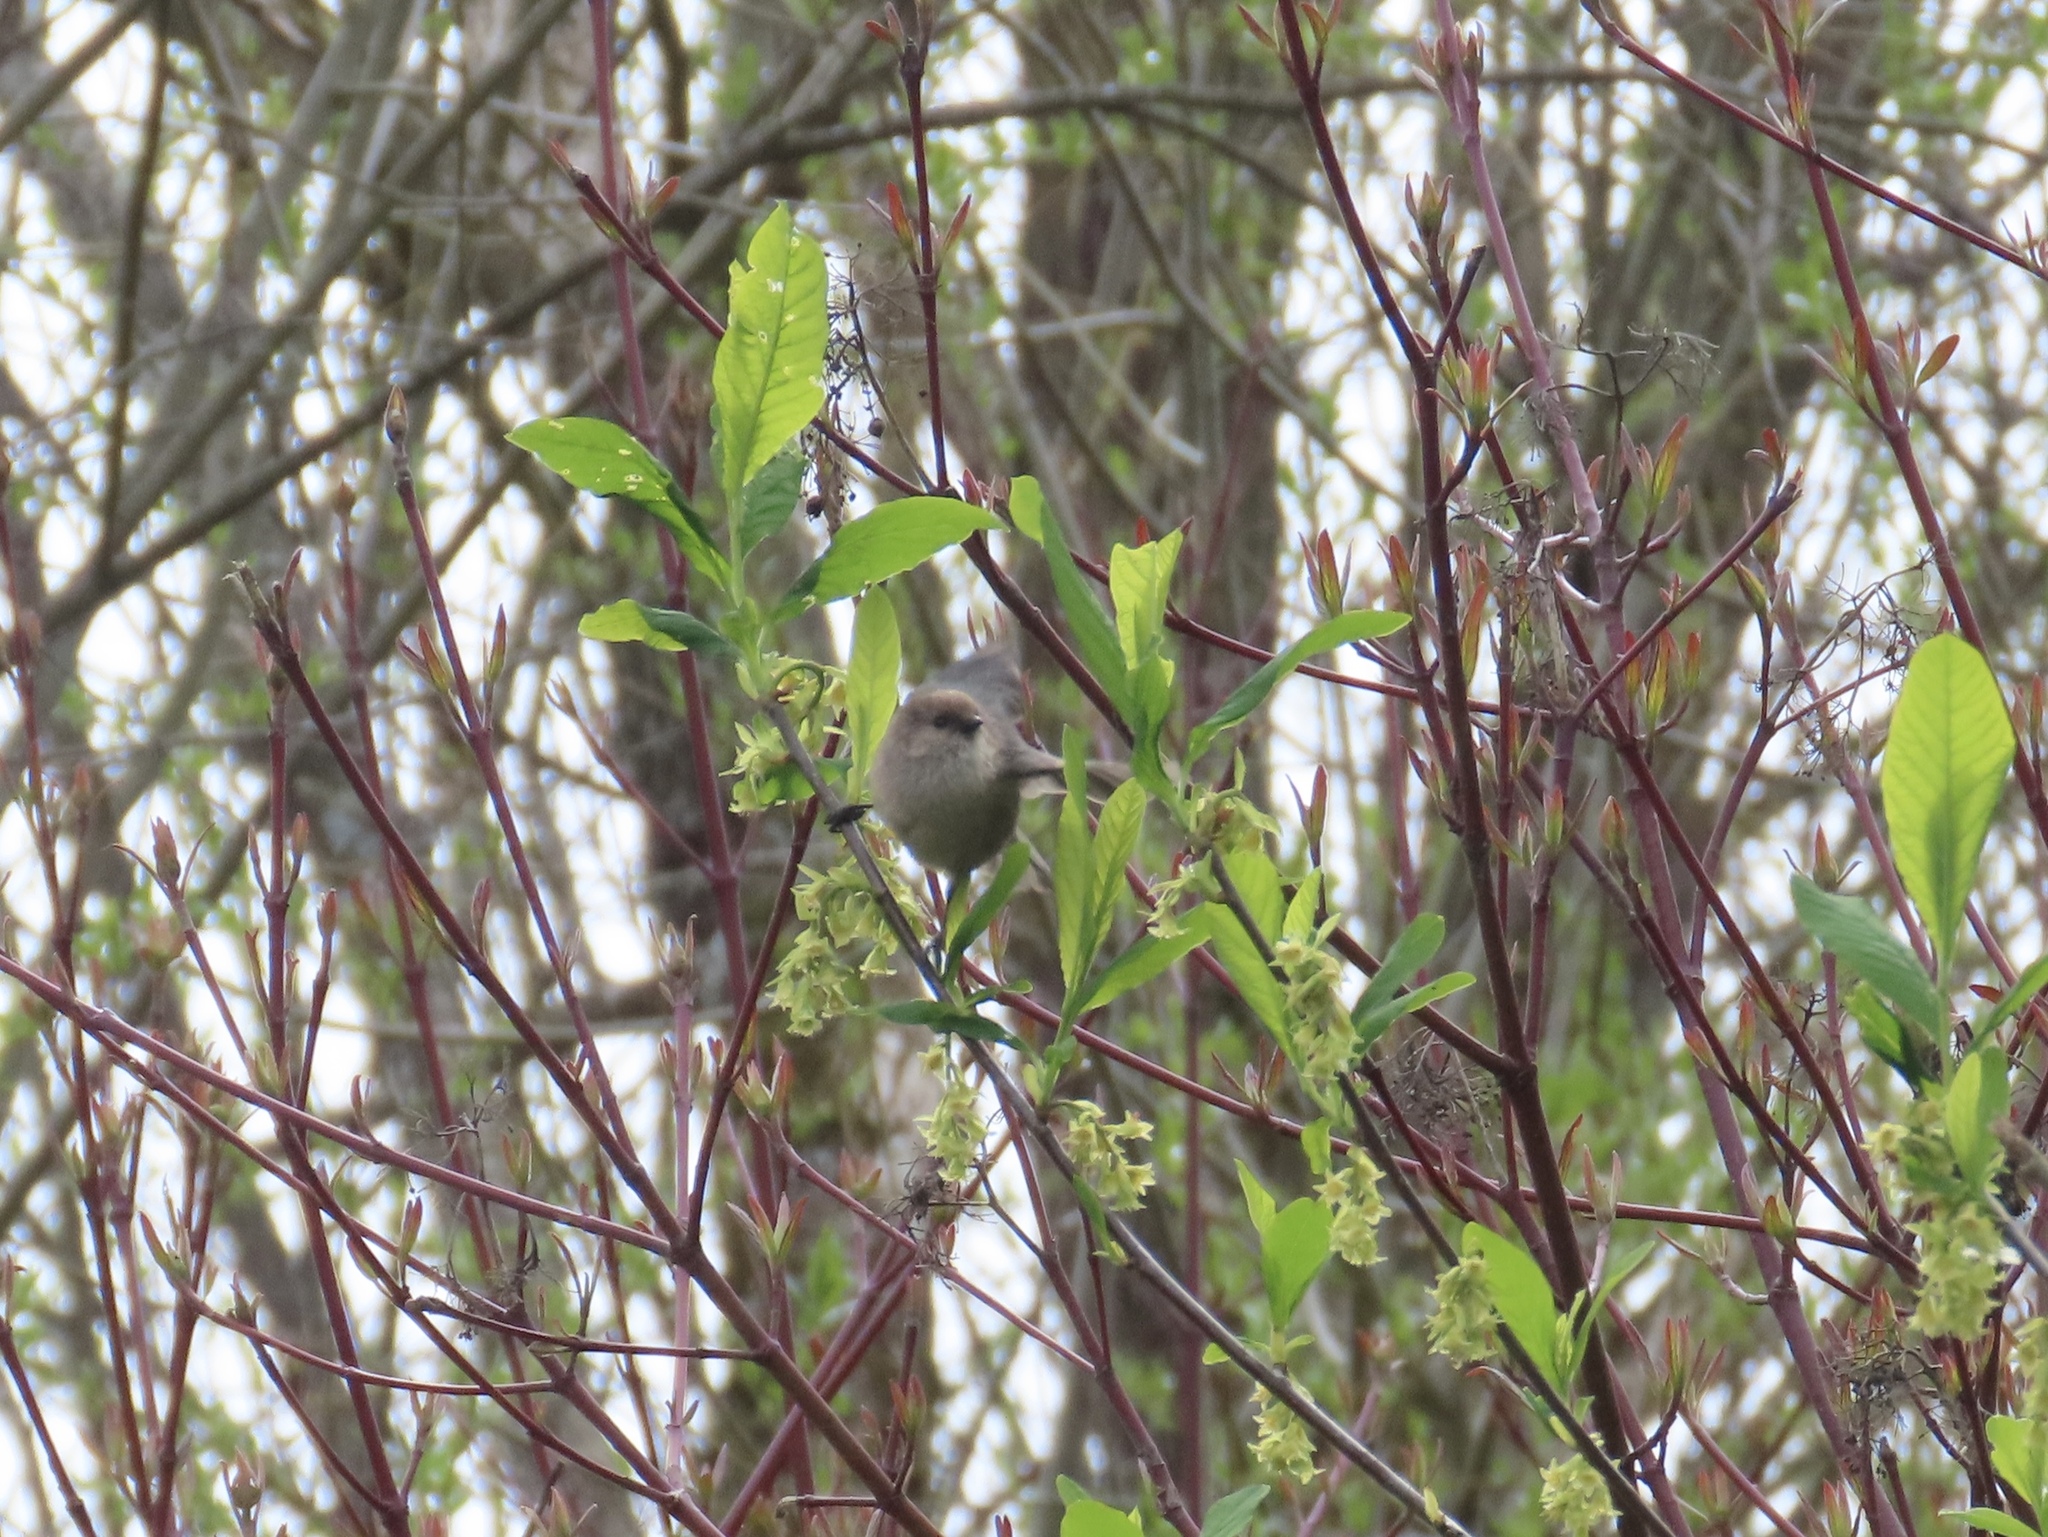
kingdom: Animalia
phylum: Chordata
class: Aves
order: Passeriformes
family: Aegithalidae
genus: Psaltriparus
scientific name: Psaltriparus minimus
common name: American bushtit
